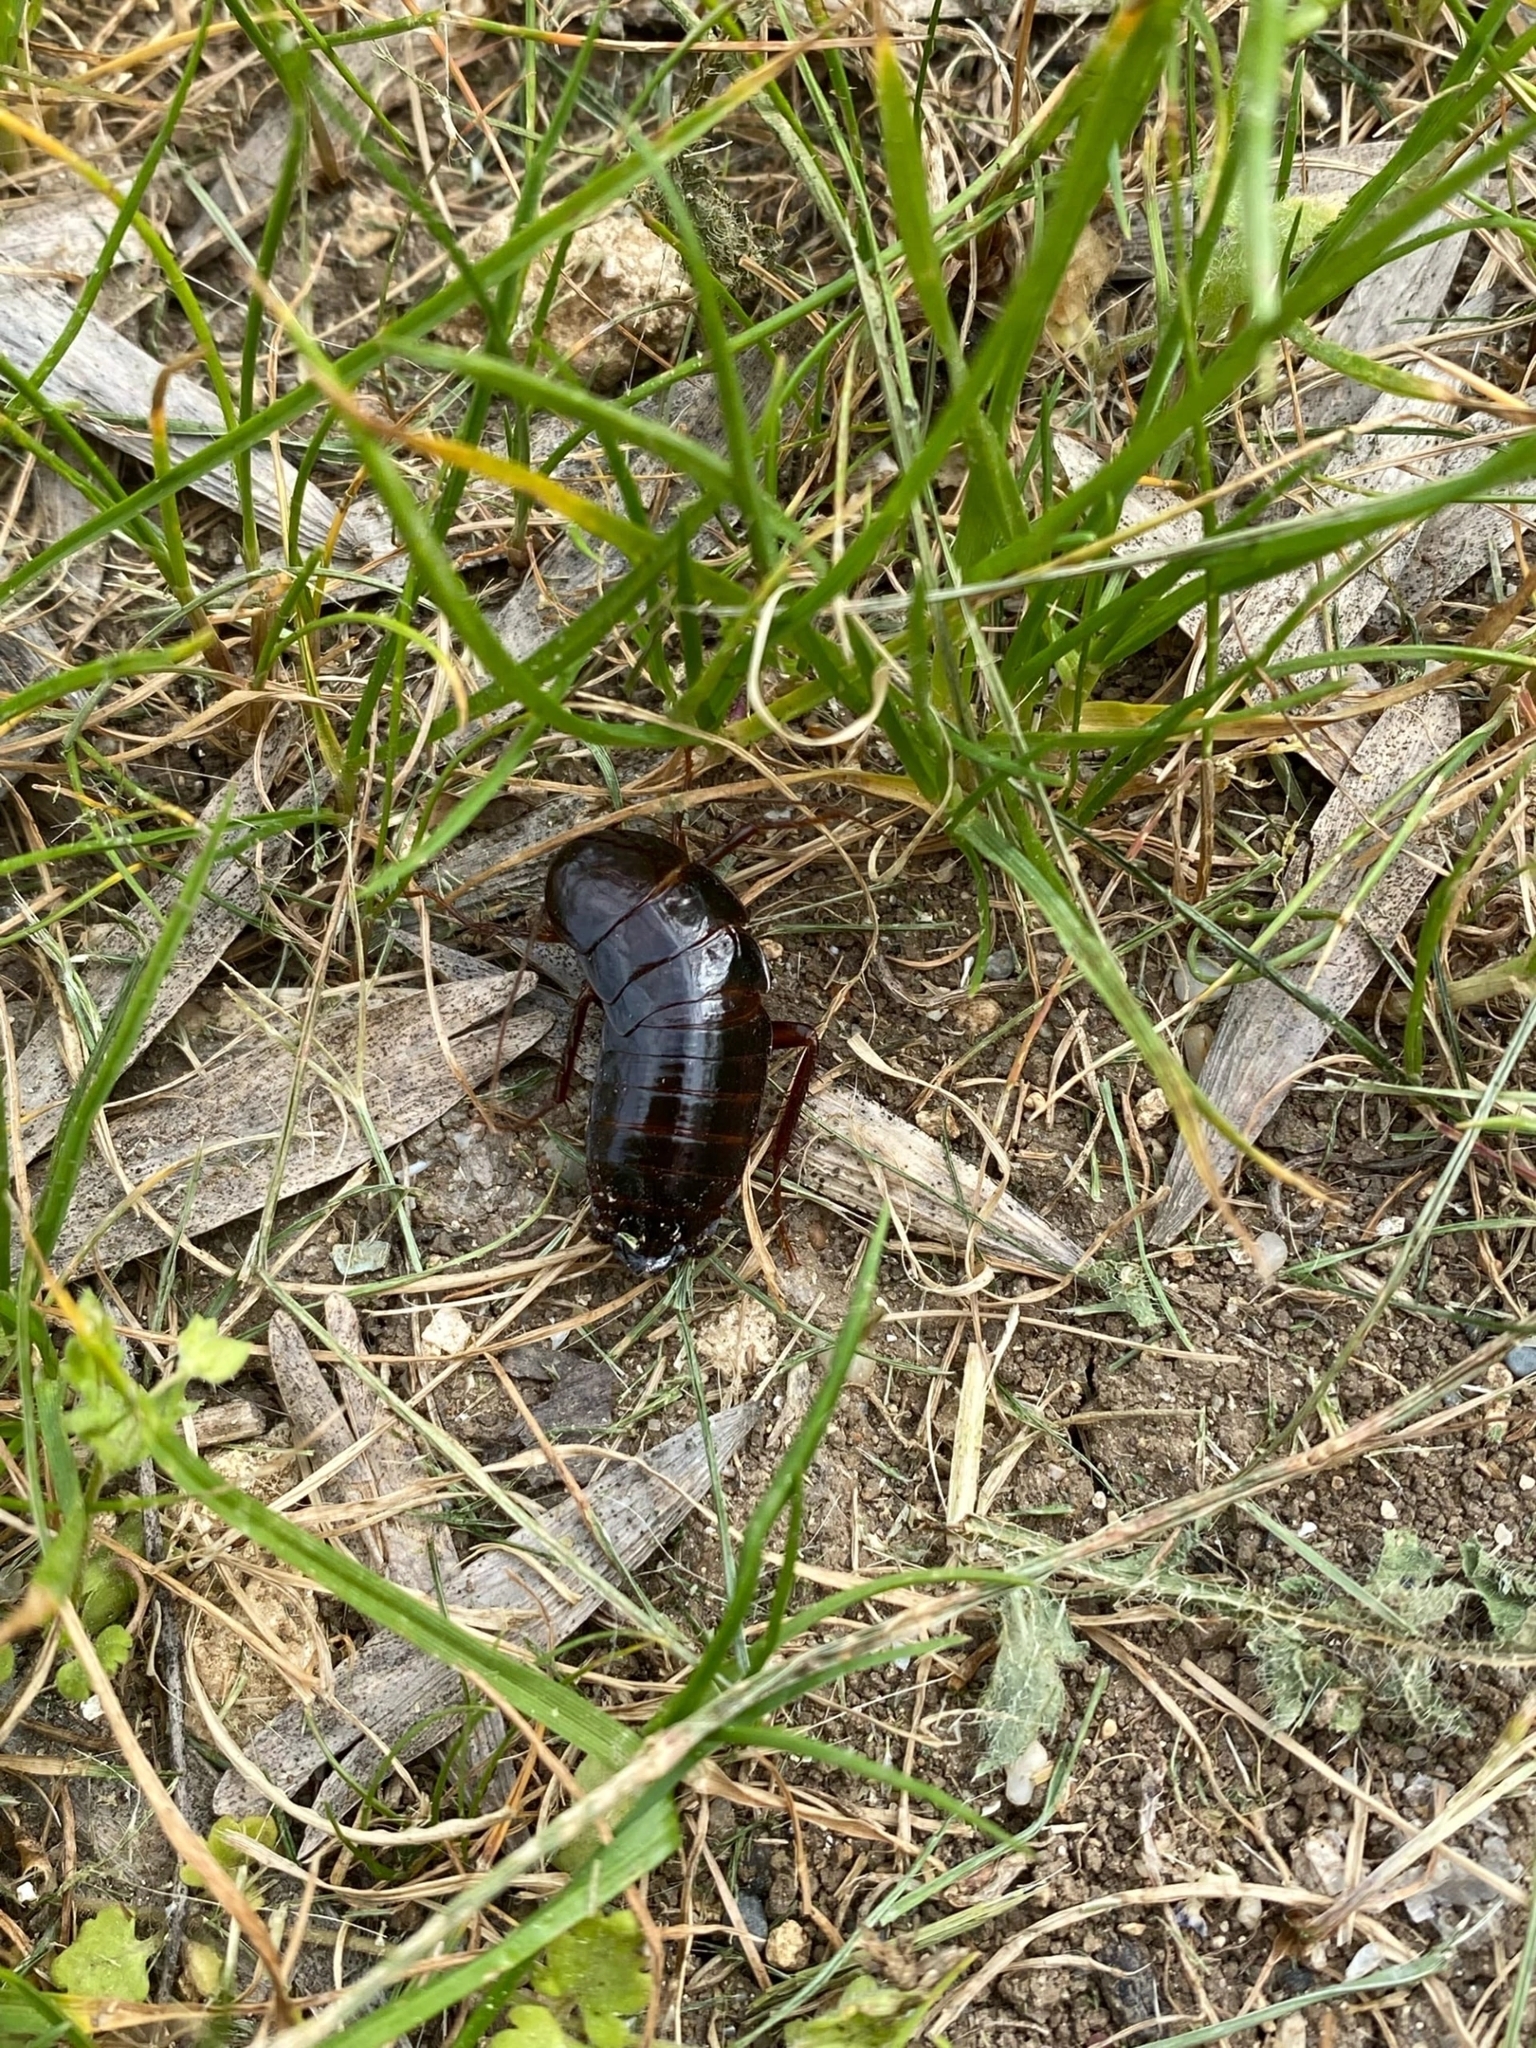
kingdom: Animalia
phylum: Arthropoda
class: Insecta
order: Blattodea
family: Blattidae
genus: Blatta
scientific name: Blatta orientalis
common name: Oriental cockroach
